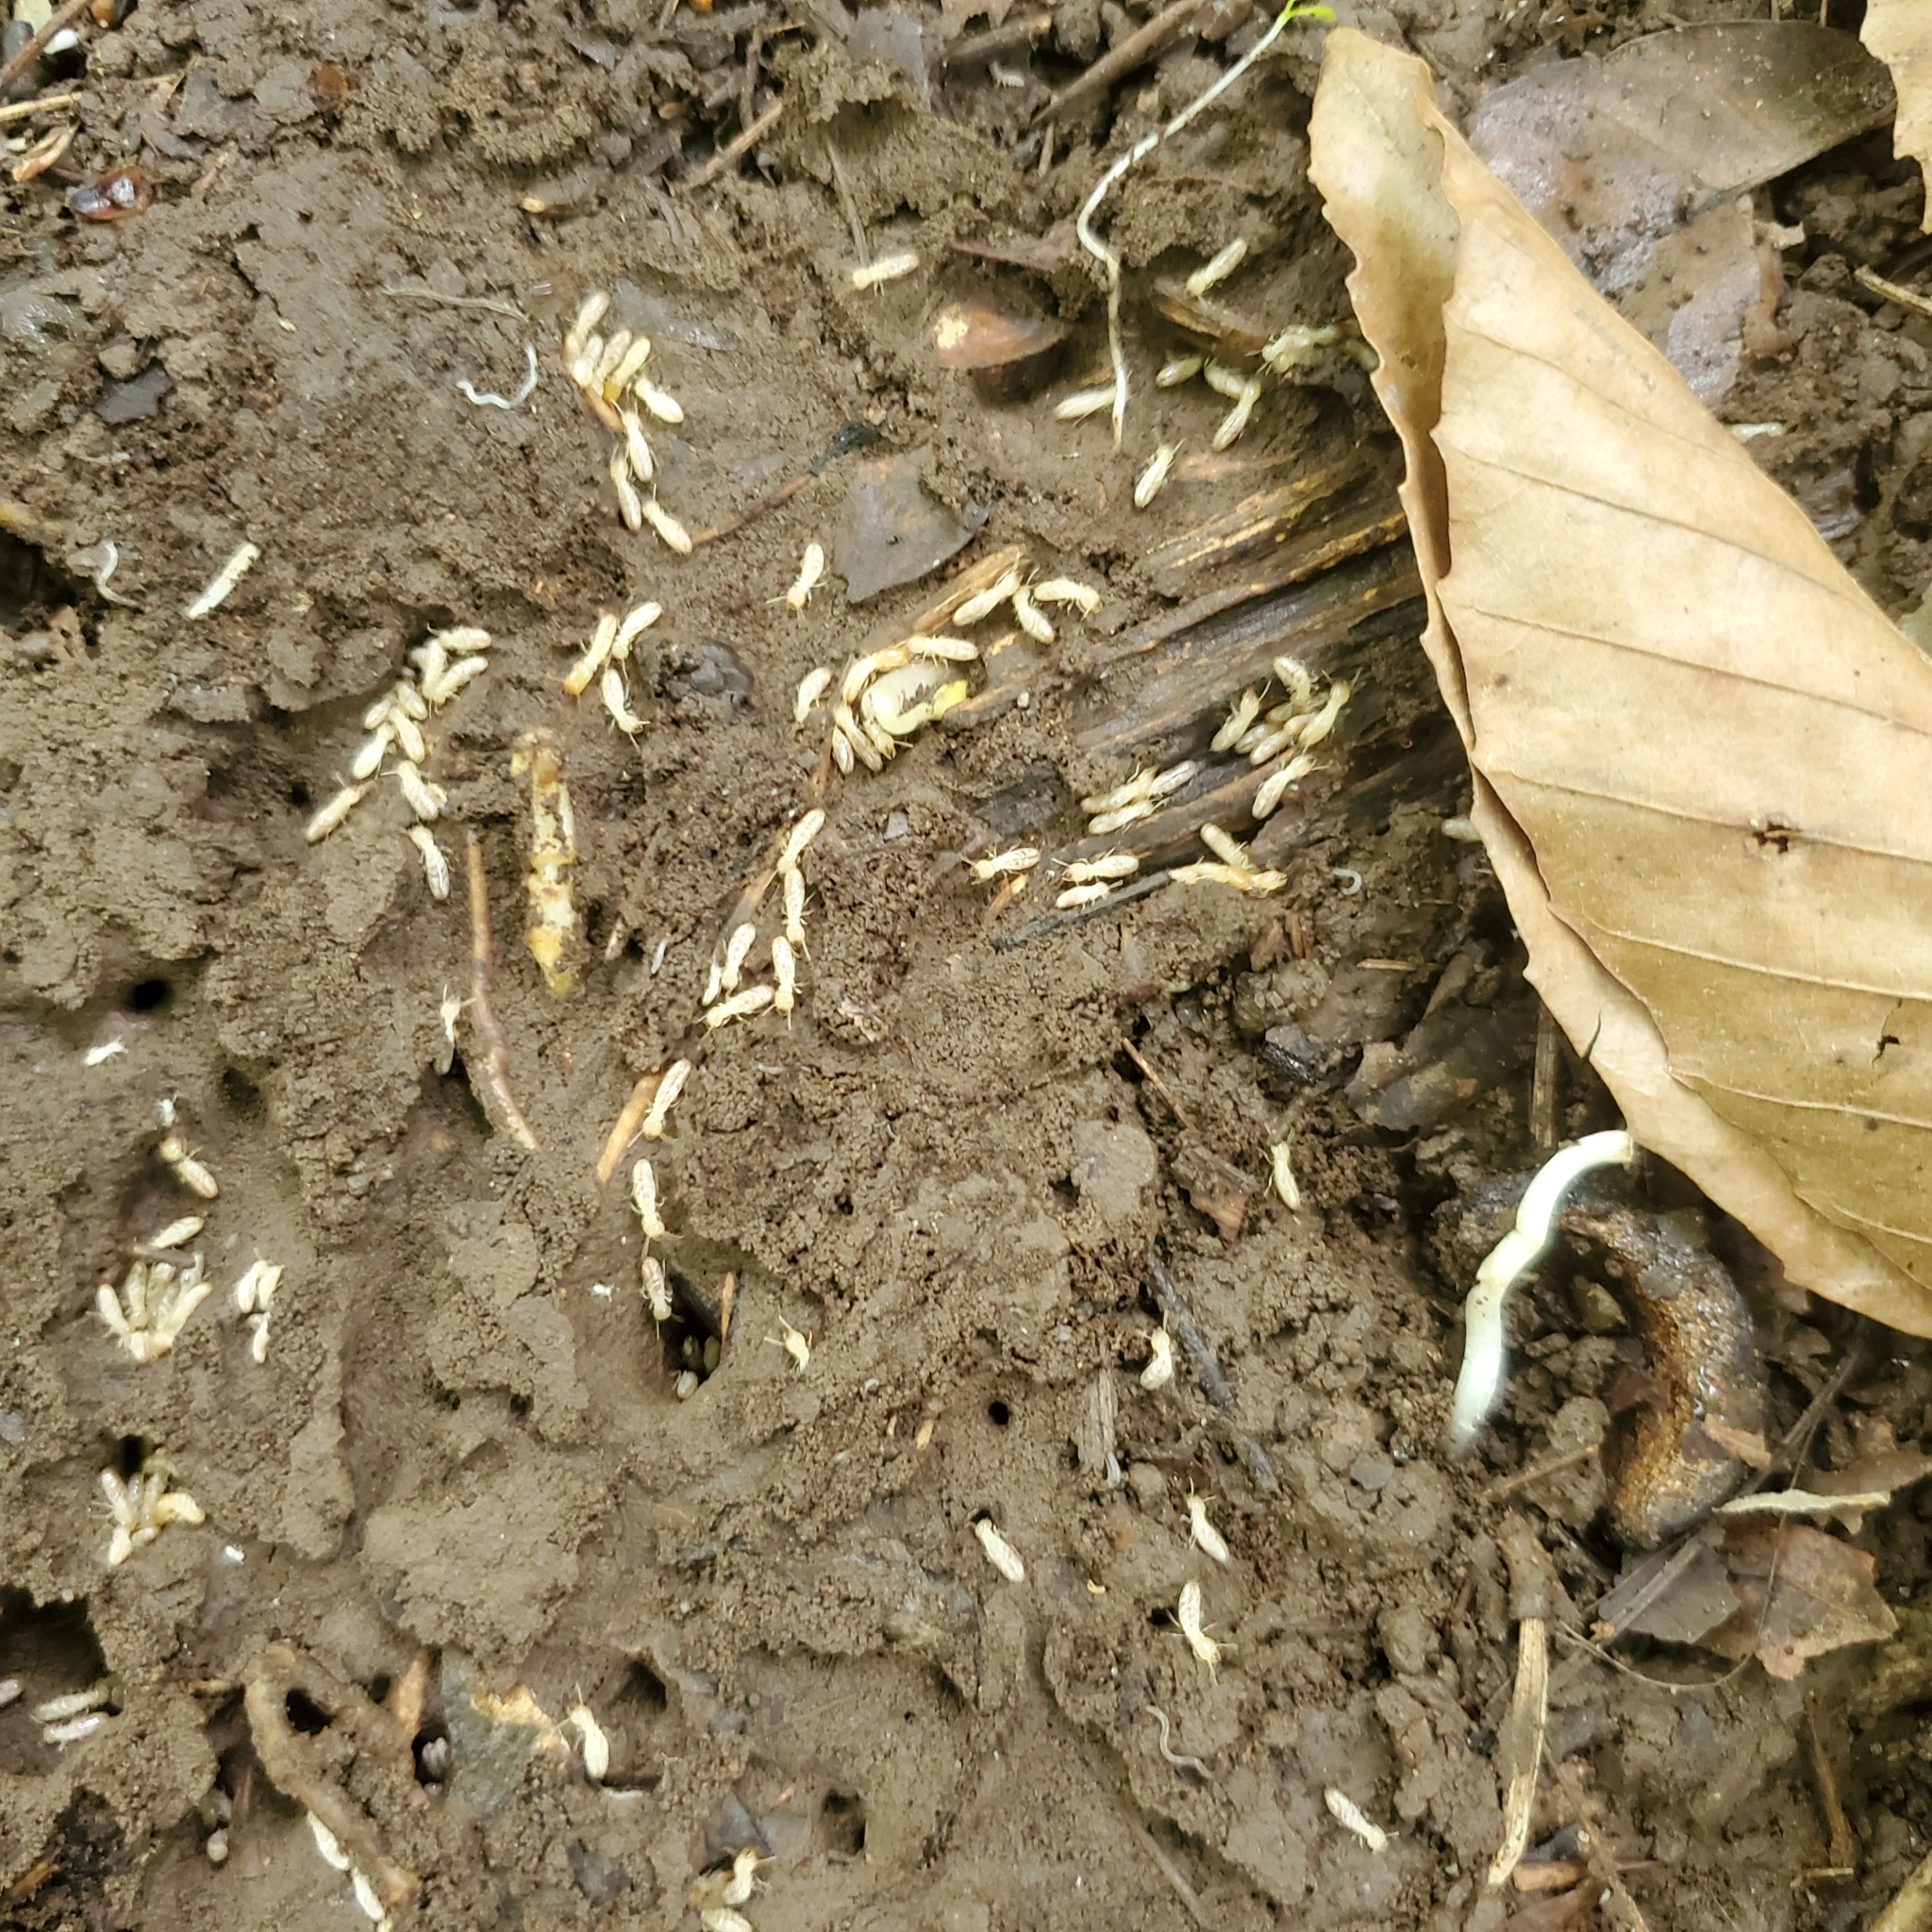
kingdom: Animalia
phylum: Arthropoda
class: Insecta
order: Blattodea
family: Rhinotermitidae
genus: Reticulitermes
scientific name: Reticulitermes flavipes
